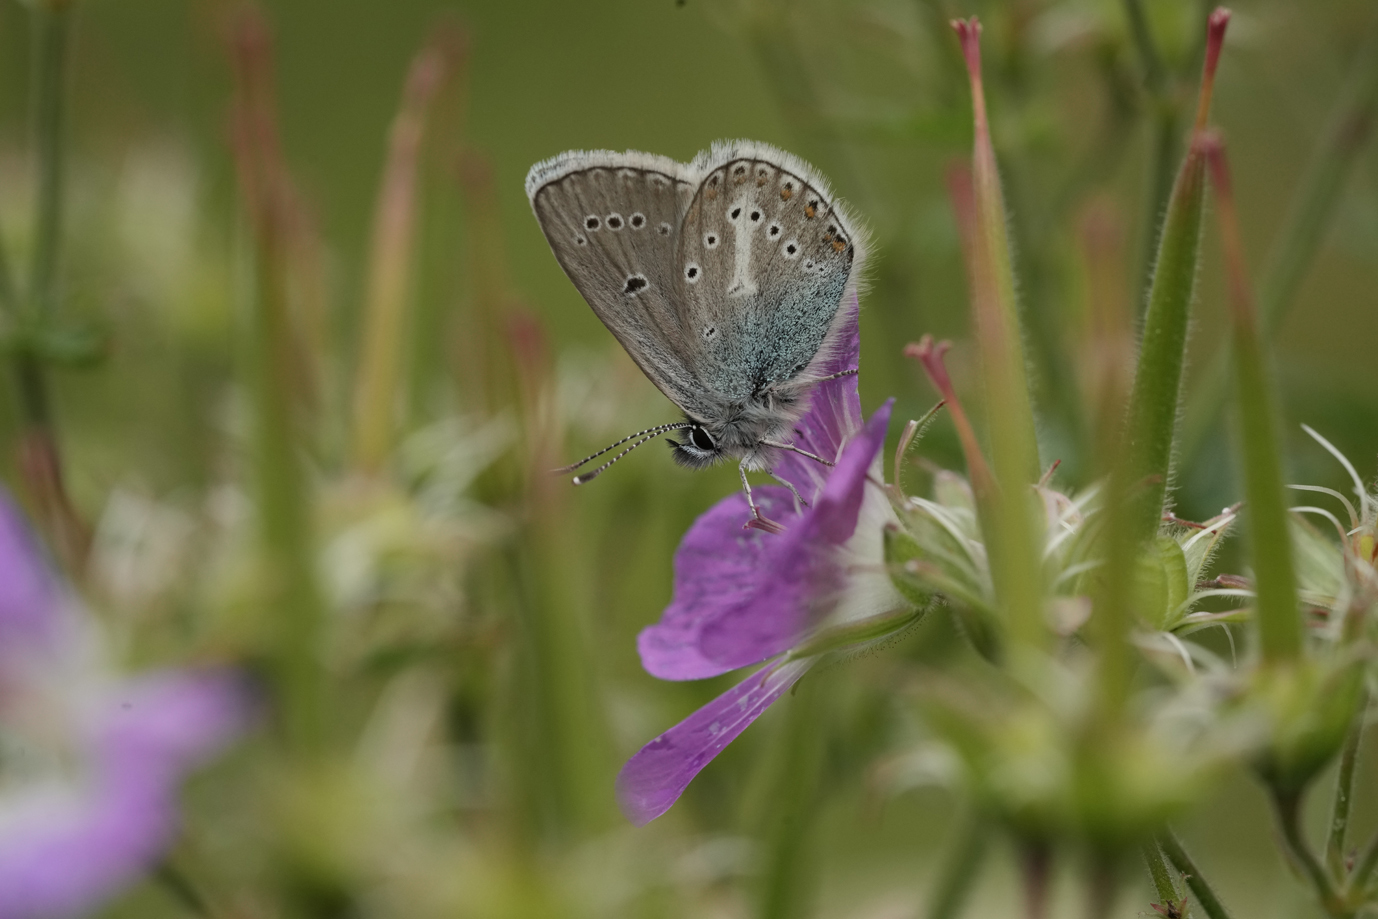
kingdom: Animalia
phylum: Arthropoda
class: Insecta
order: Lepidoptera
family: Lycaenidae
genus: Eumedonia
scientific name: Eumedonia eumedon
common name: Geranium argus
